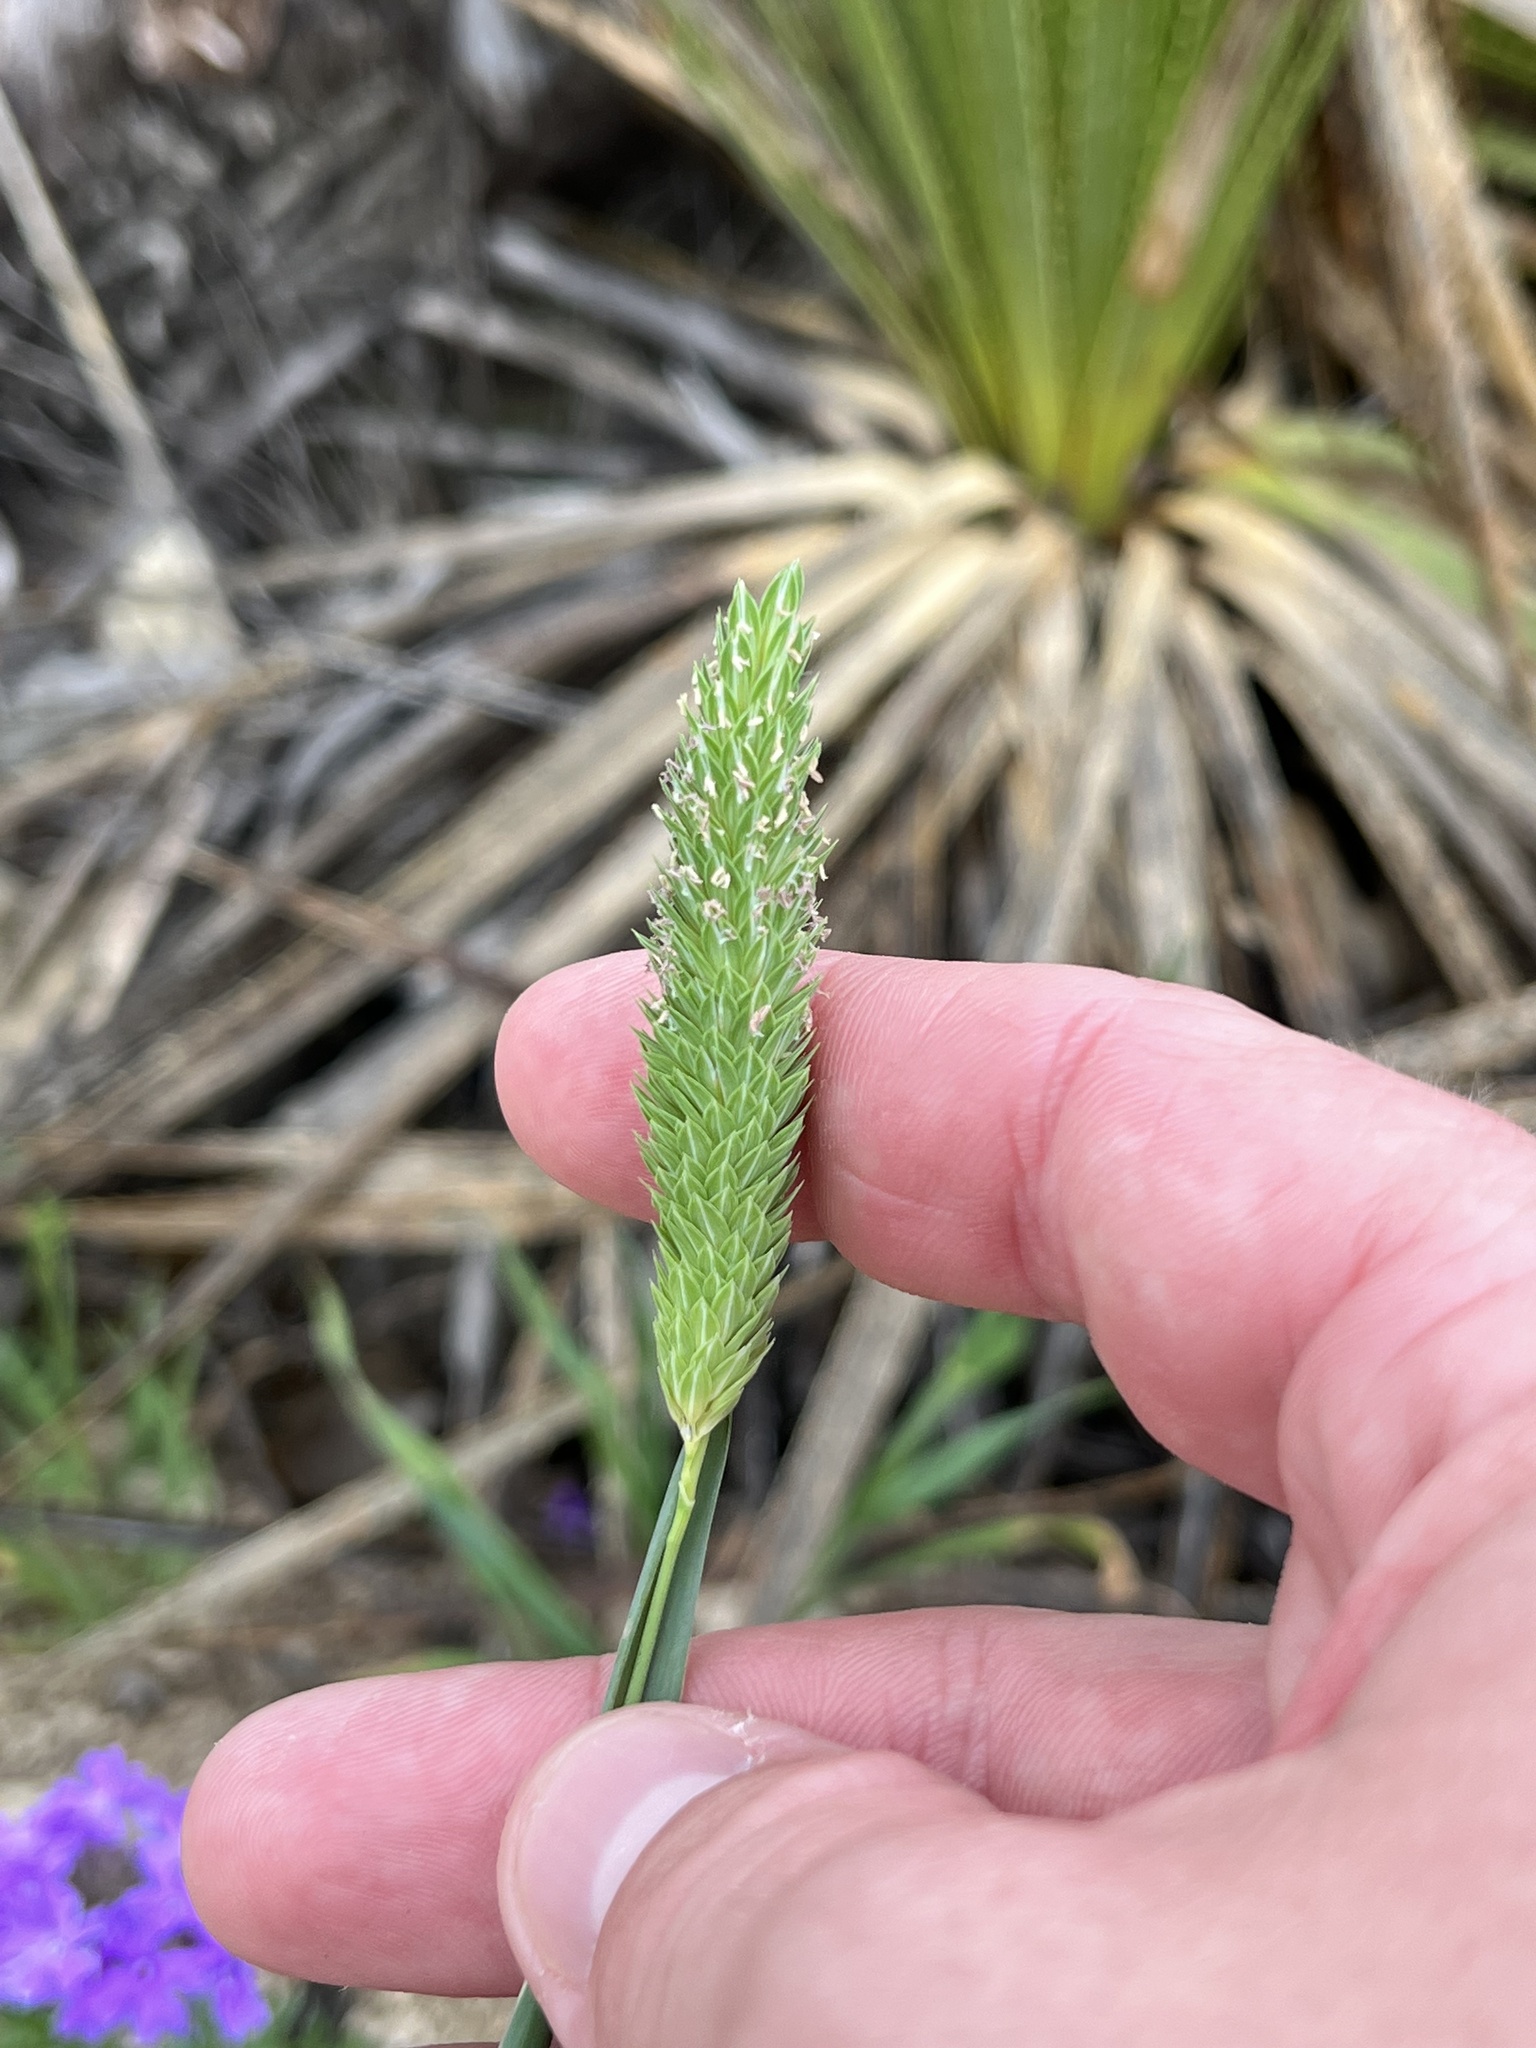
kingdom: Plantae
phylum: Tracheophyta
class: Liliopsida
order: Poales
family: Poaceae
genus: Phalaris
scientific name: Phalaris caroliniana
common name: May grass
